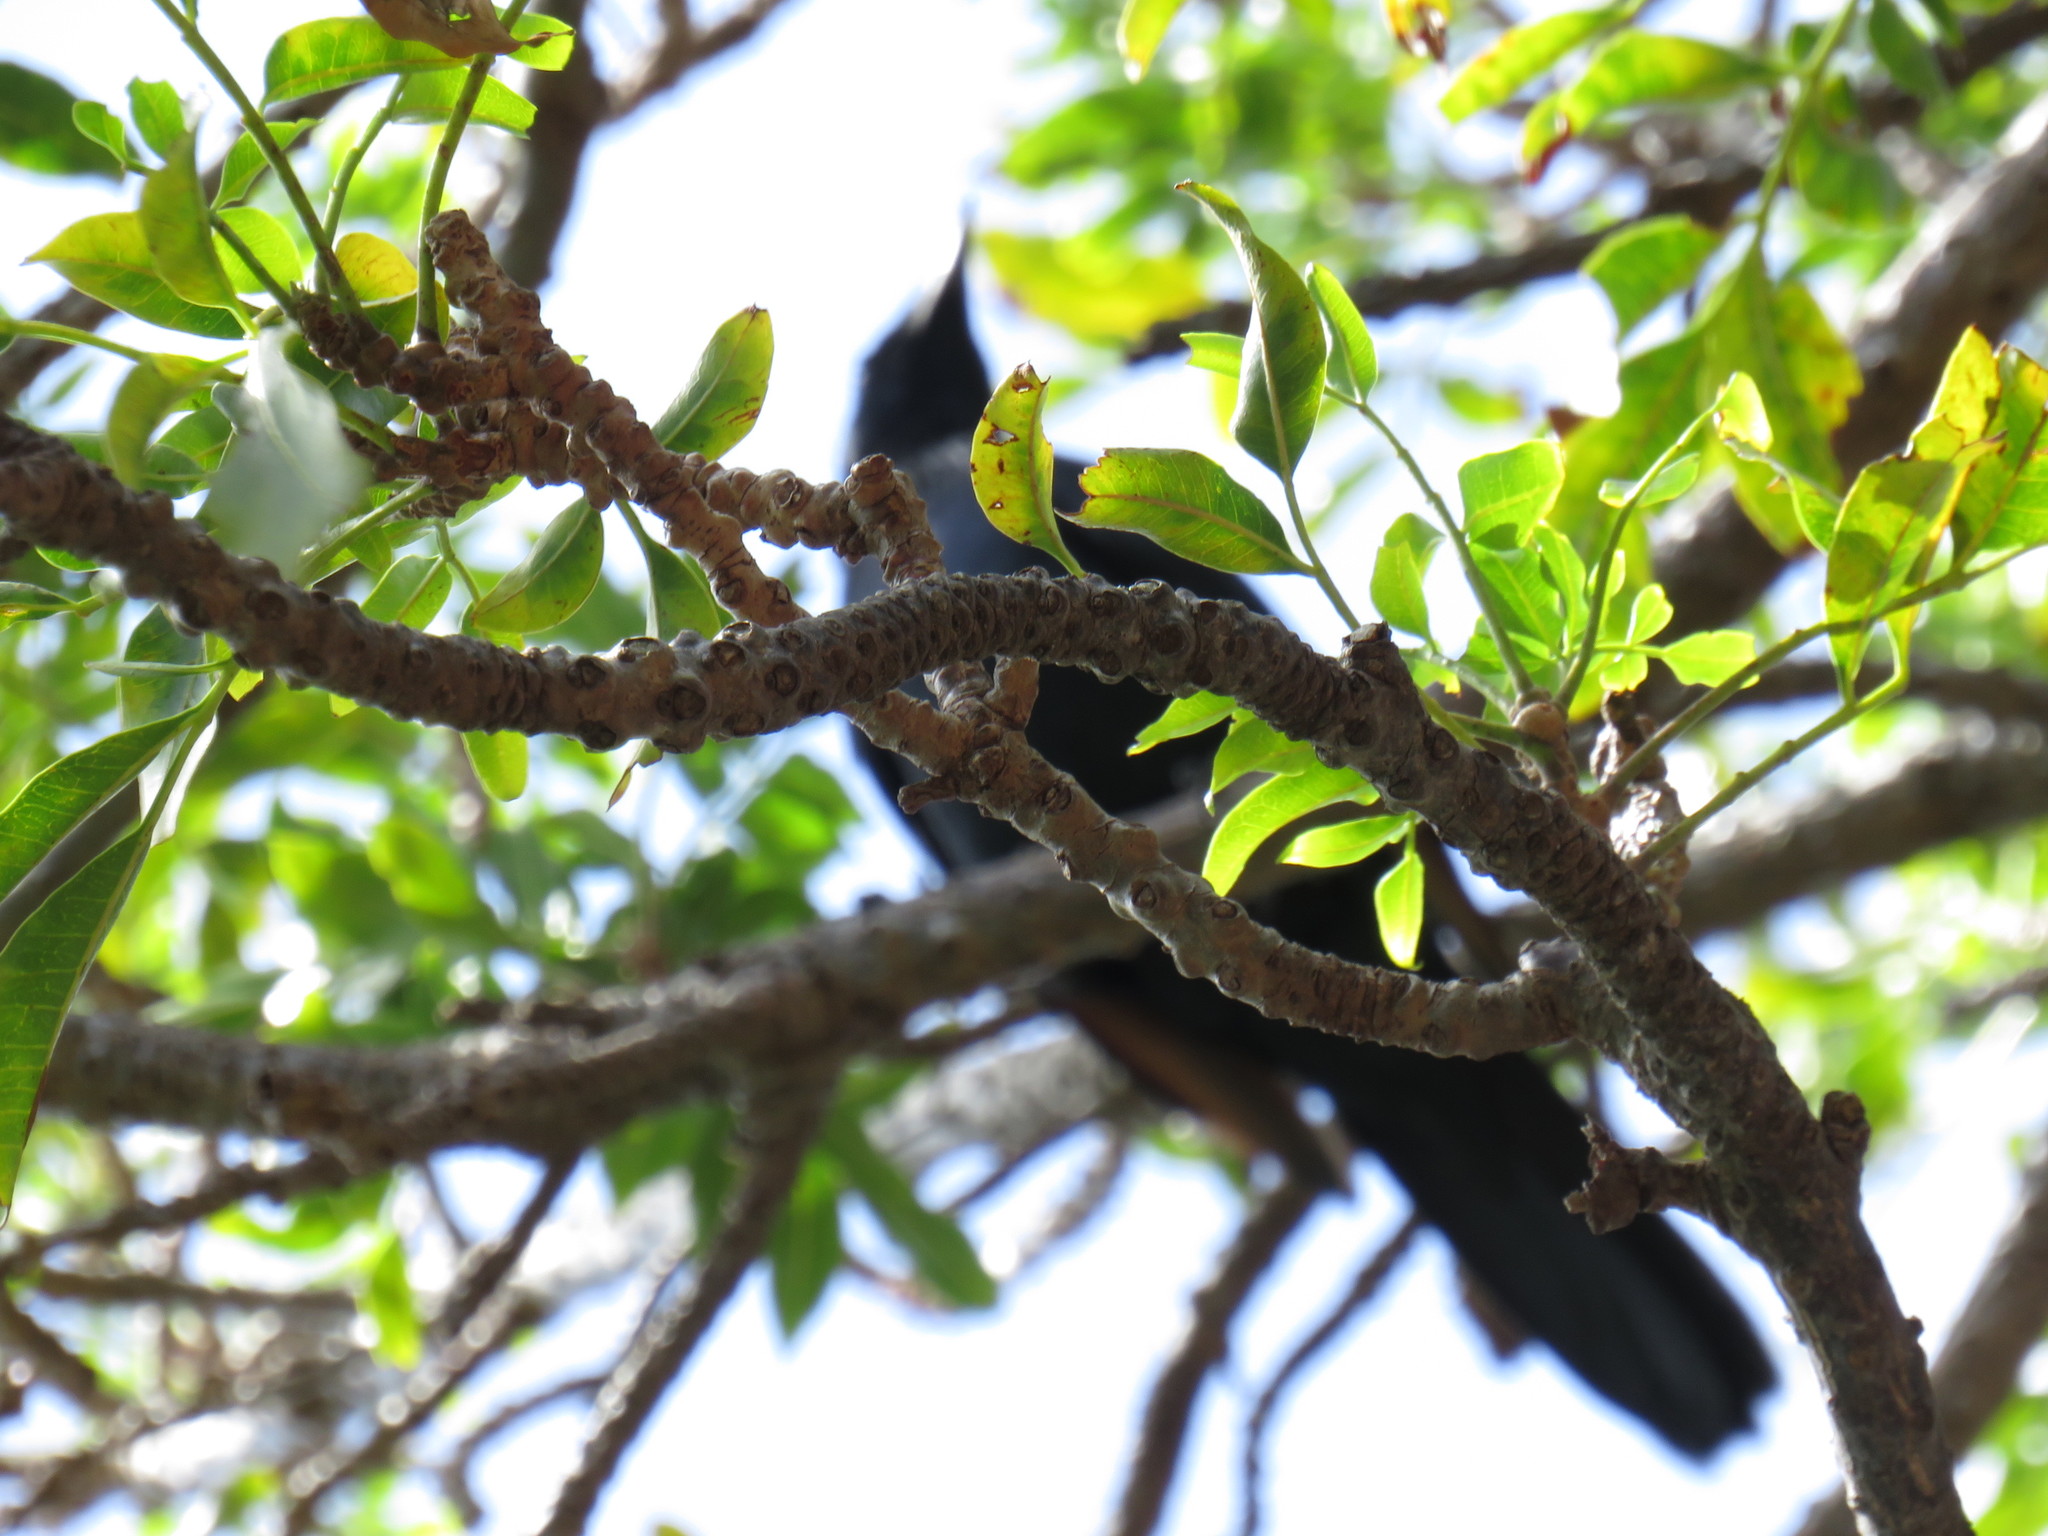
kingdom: Animalia
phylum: Chordata
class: Aves
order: Passeriformes
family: Sturnidae
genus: Onychognathus
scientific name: Onychognathus morio
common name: Red-winged starling
